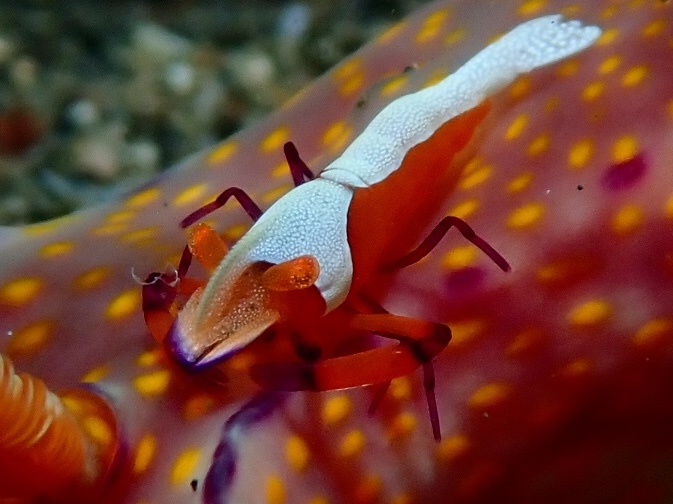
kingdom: Animalia
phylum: Arthropoda
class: Malacostraca
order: Decapoda
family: Palaemonidae
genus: Periclimenes
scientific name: Periclimenes rex
